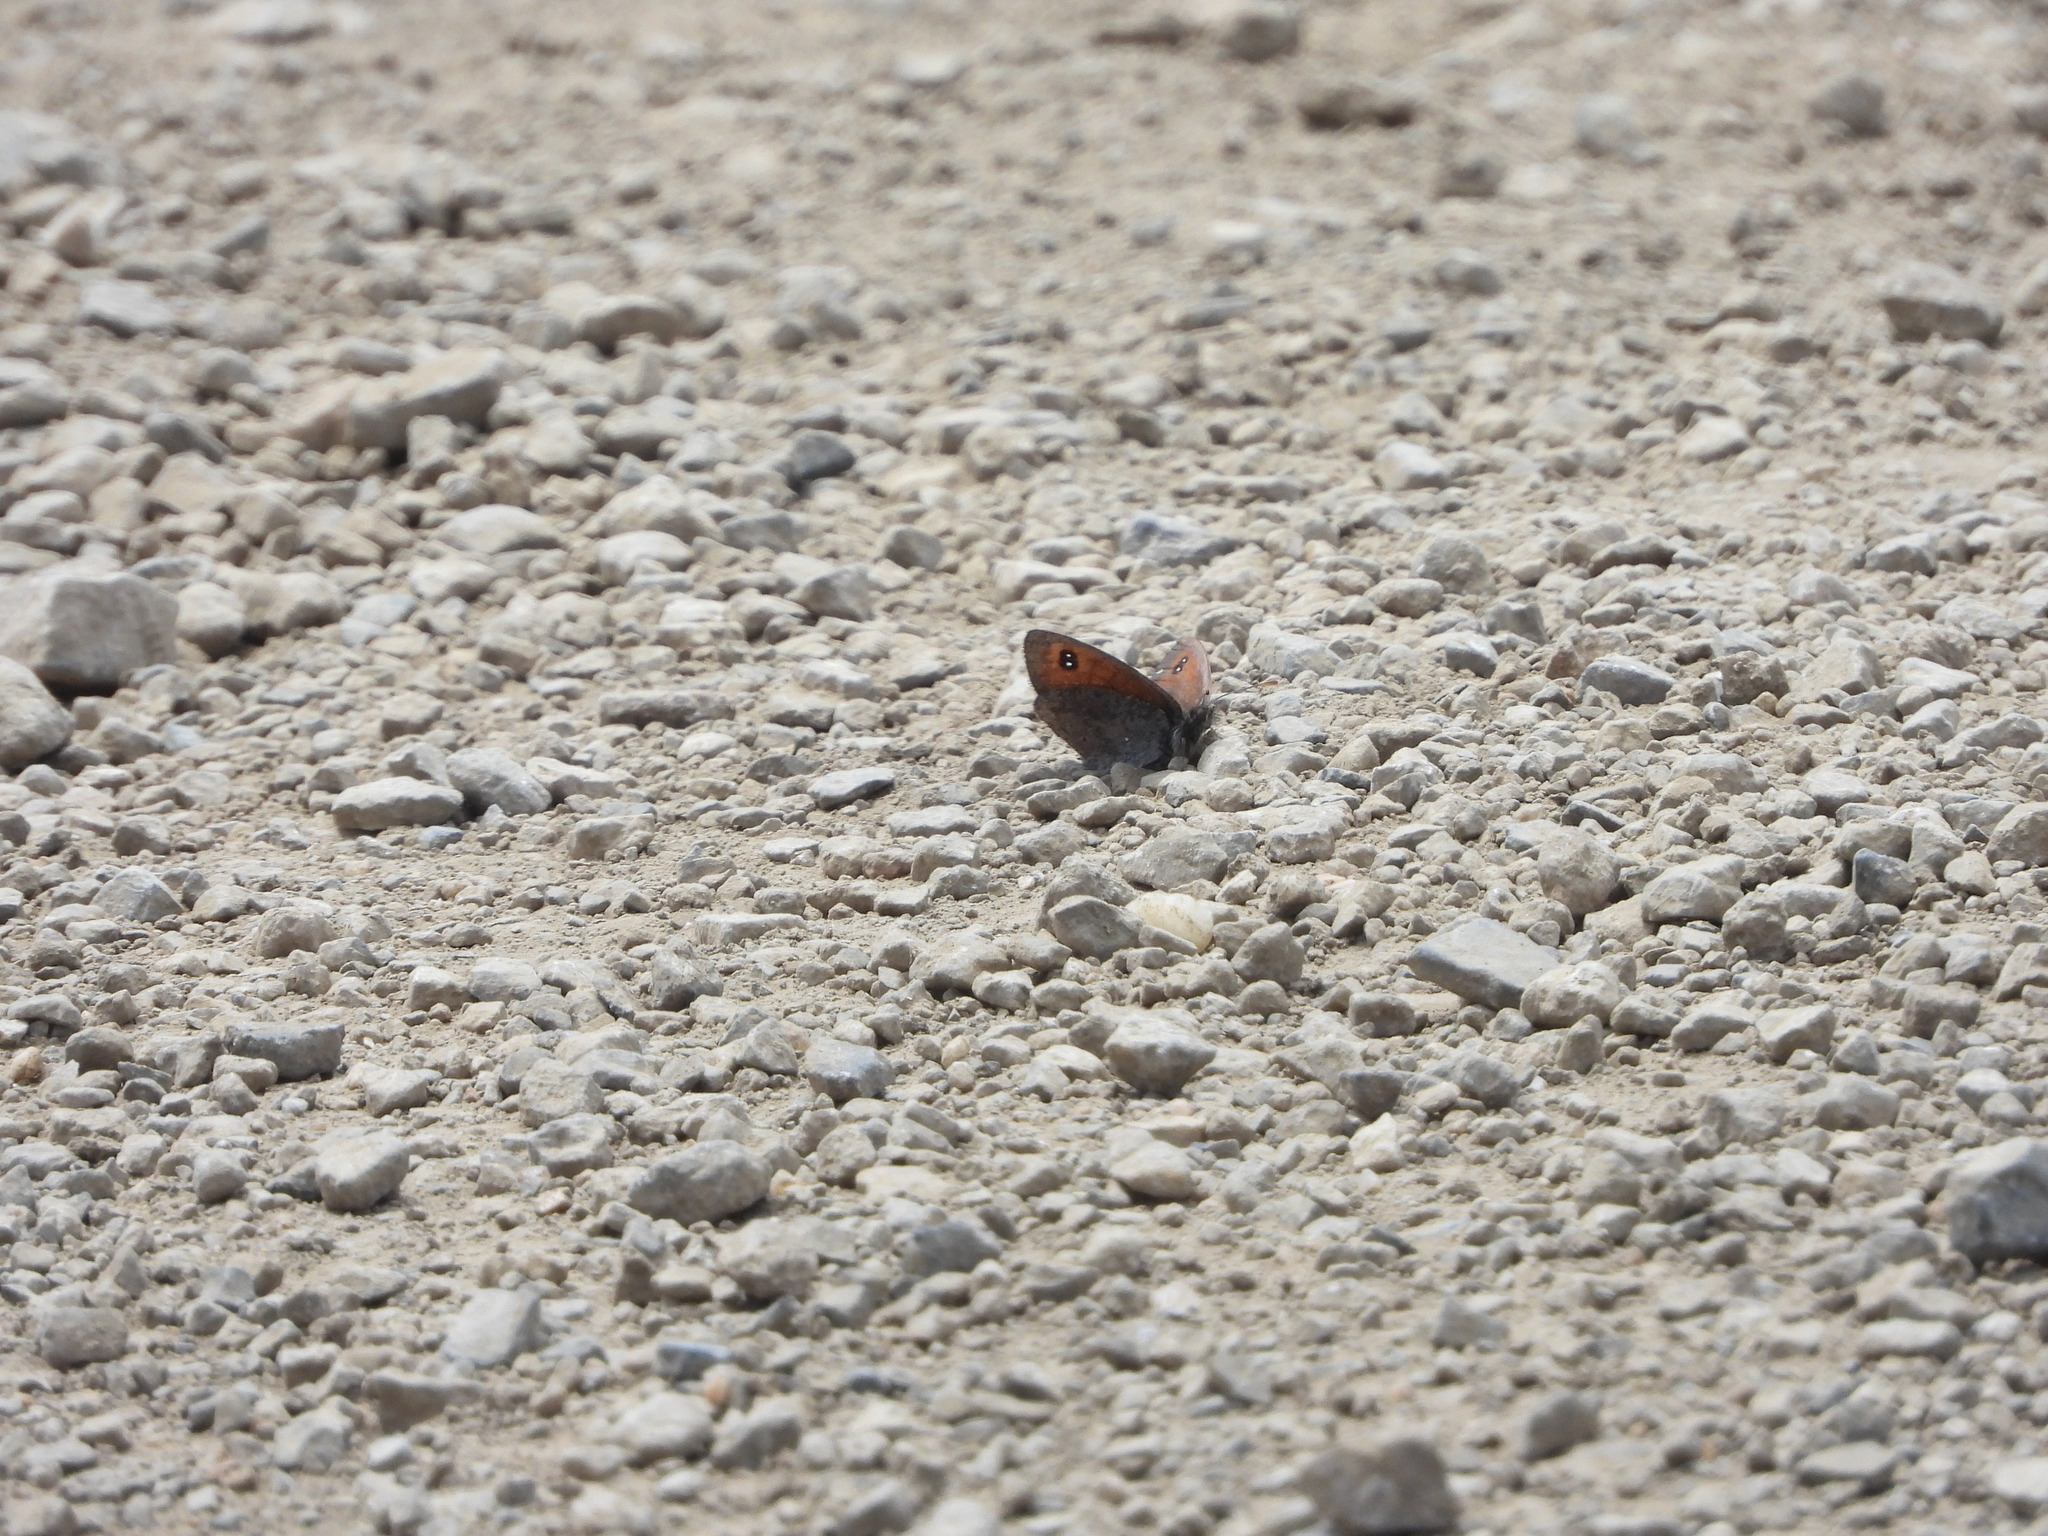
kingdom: Animalia
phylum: Arthropoda
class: Insecta
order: Lepidoptera
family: Nymphalidae
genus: Erebia
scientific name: Erebia tyndarus
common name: Swiss brassy ringlet
